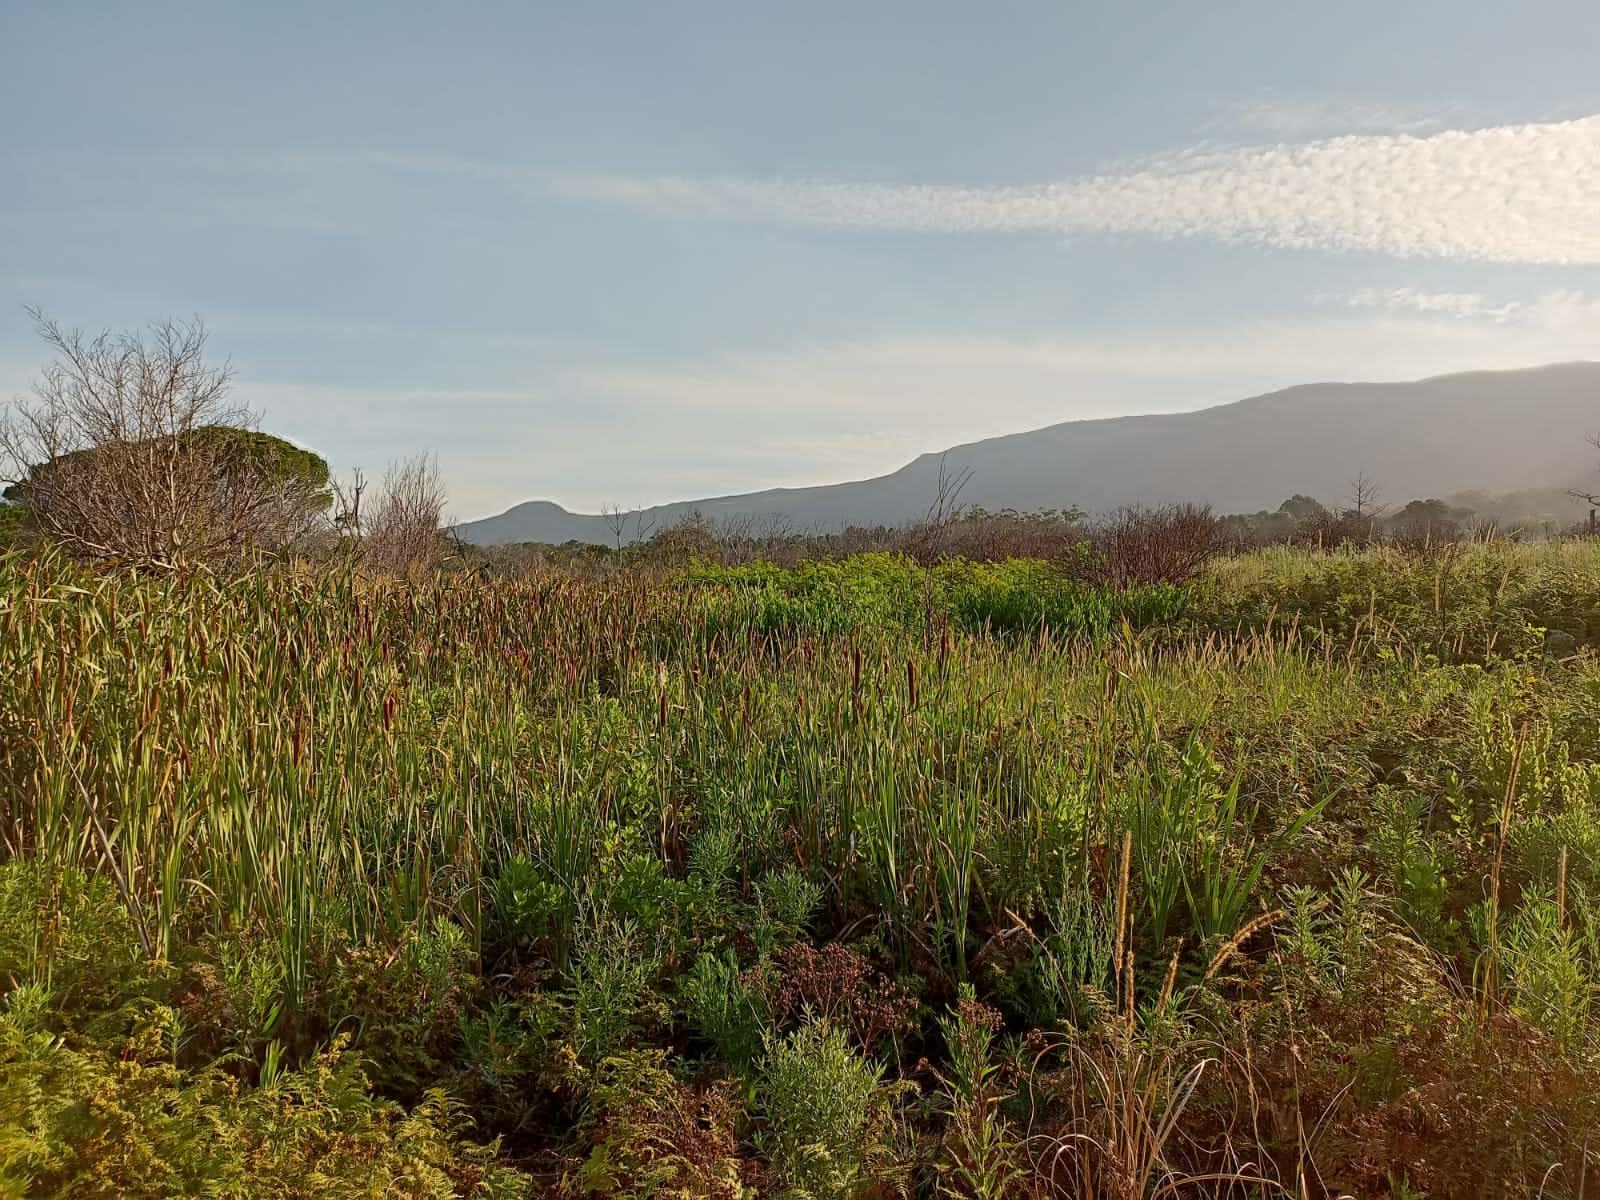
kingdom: Plantae
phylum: Tracheophyta
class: Polypodiopsida
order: Polypodiales
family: Dennstaedtiaceae
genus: Pteridium
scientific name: Pteridium aquilinum
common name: Bracken
